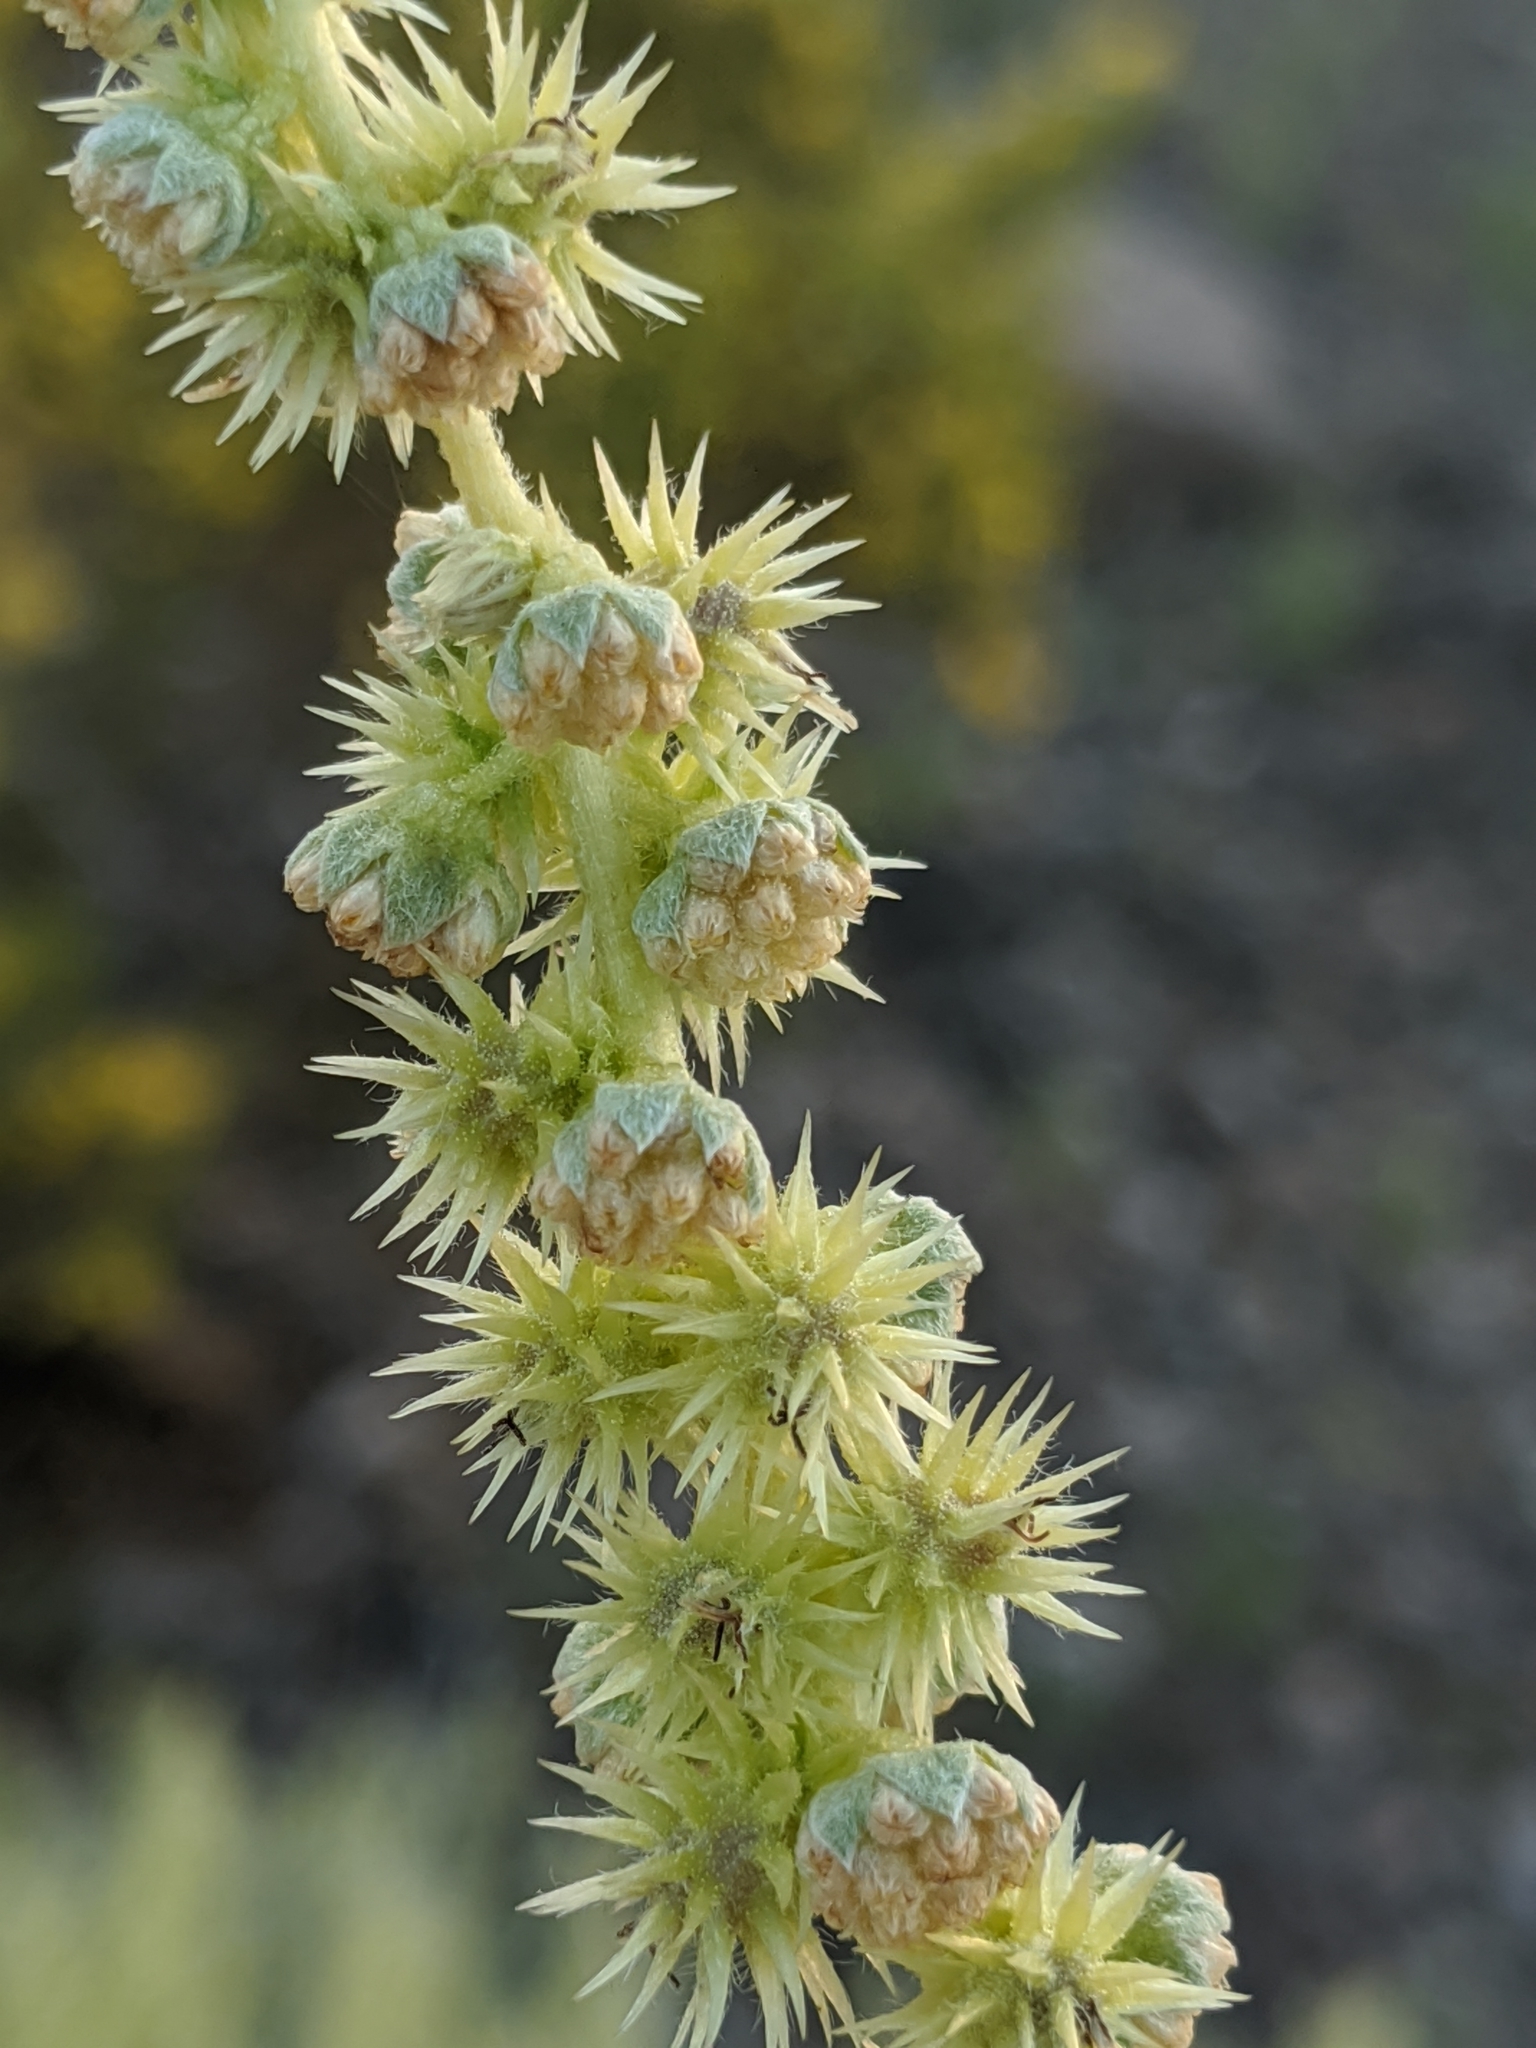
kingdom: Plantae
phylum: Tracheophyta
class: Magnoliopsida
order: Asterales
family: Asteraceae
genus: Ambrosia
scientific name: Ambrosia dumosa
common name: Bur-sage
